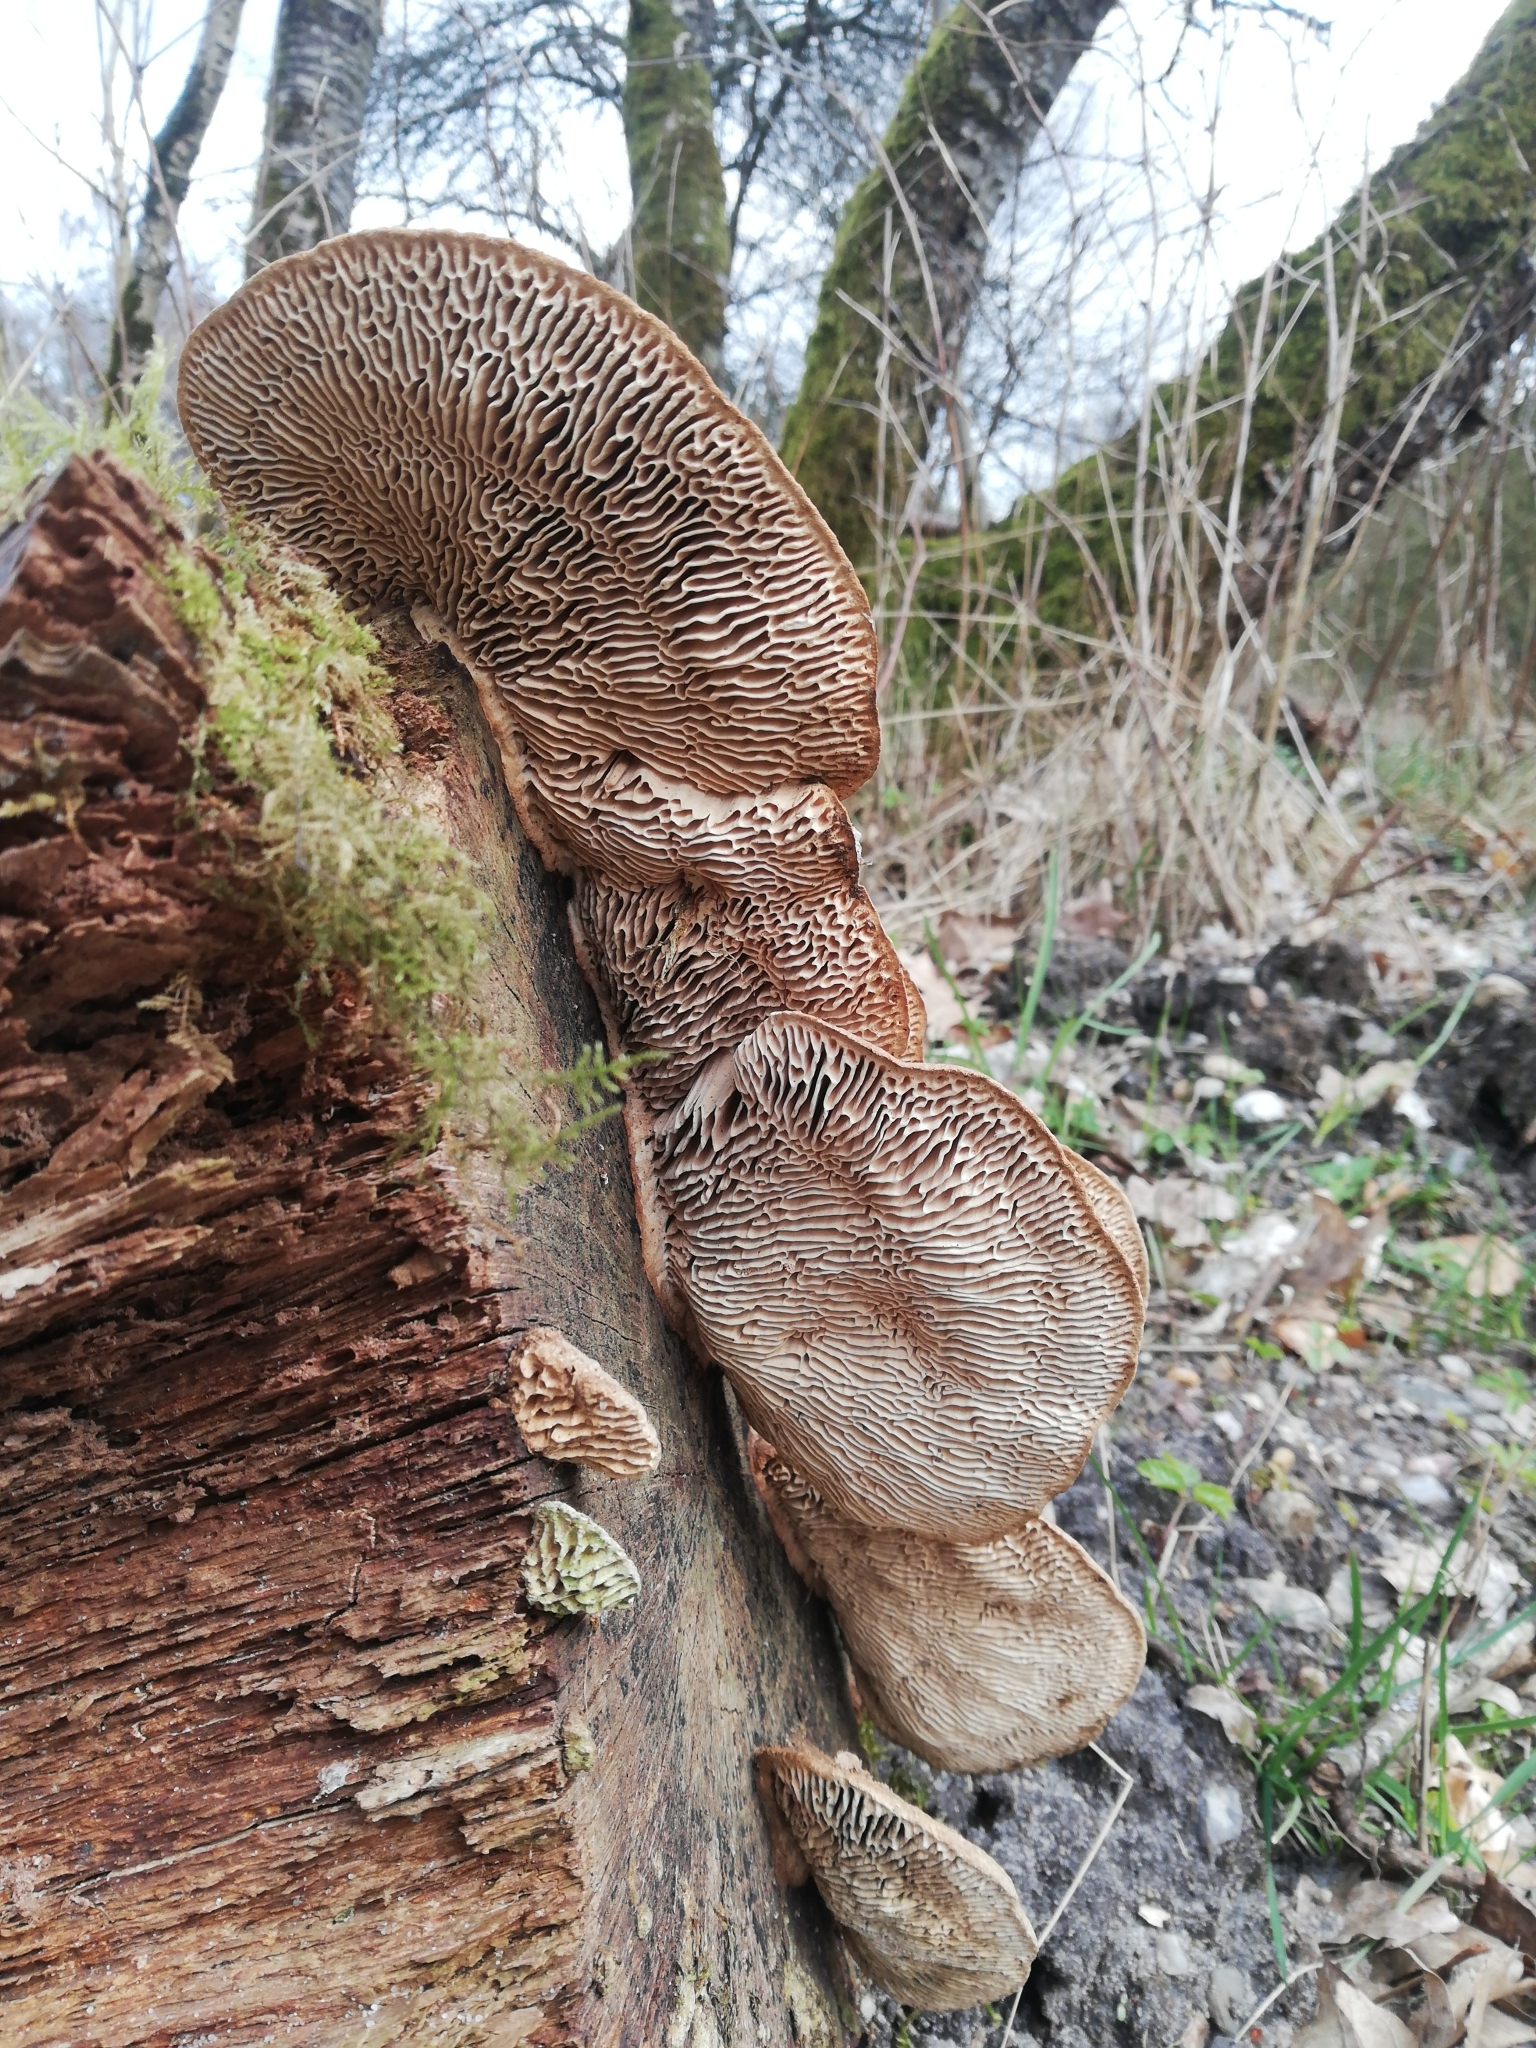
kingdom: Fungi
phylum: Basidiomycota
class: Agaricomycetes
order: Polyporales
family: Fomitopsidaceae
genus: Fomitopsis
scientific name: Fomitopsis
